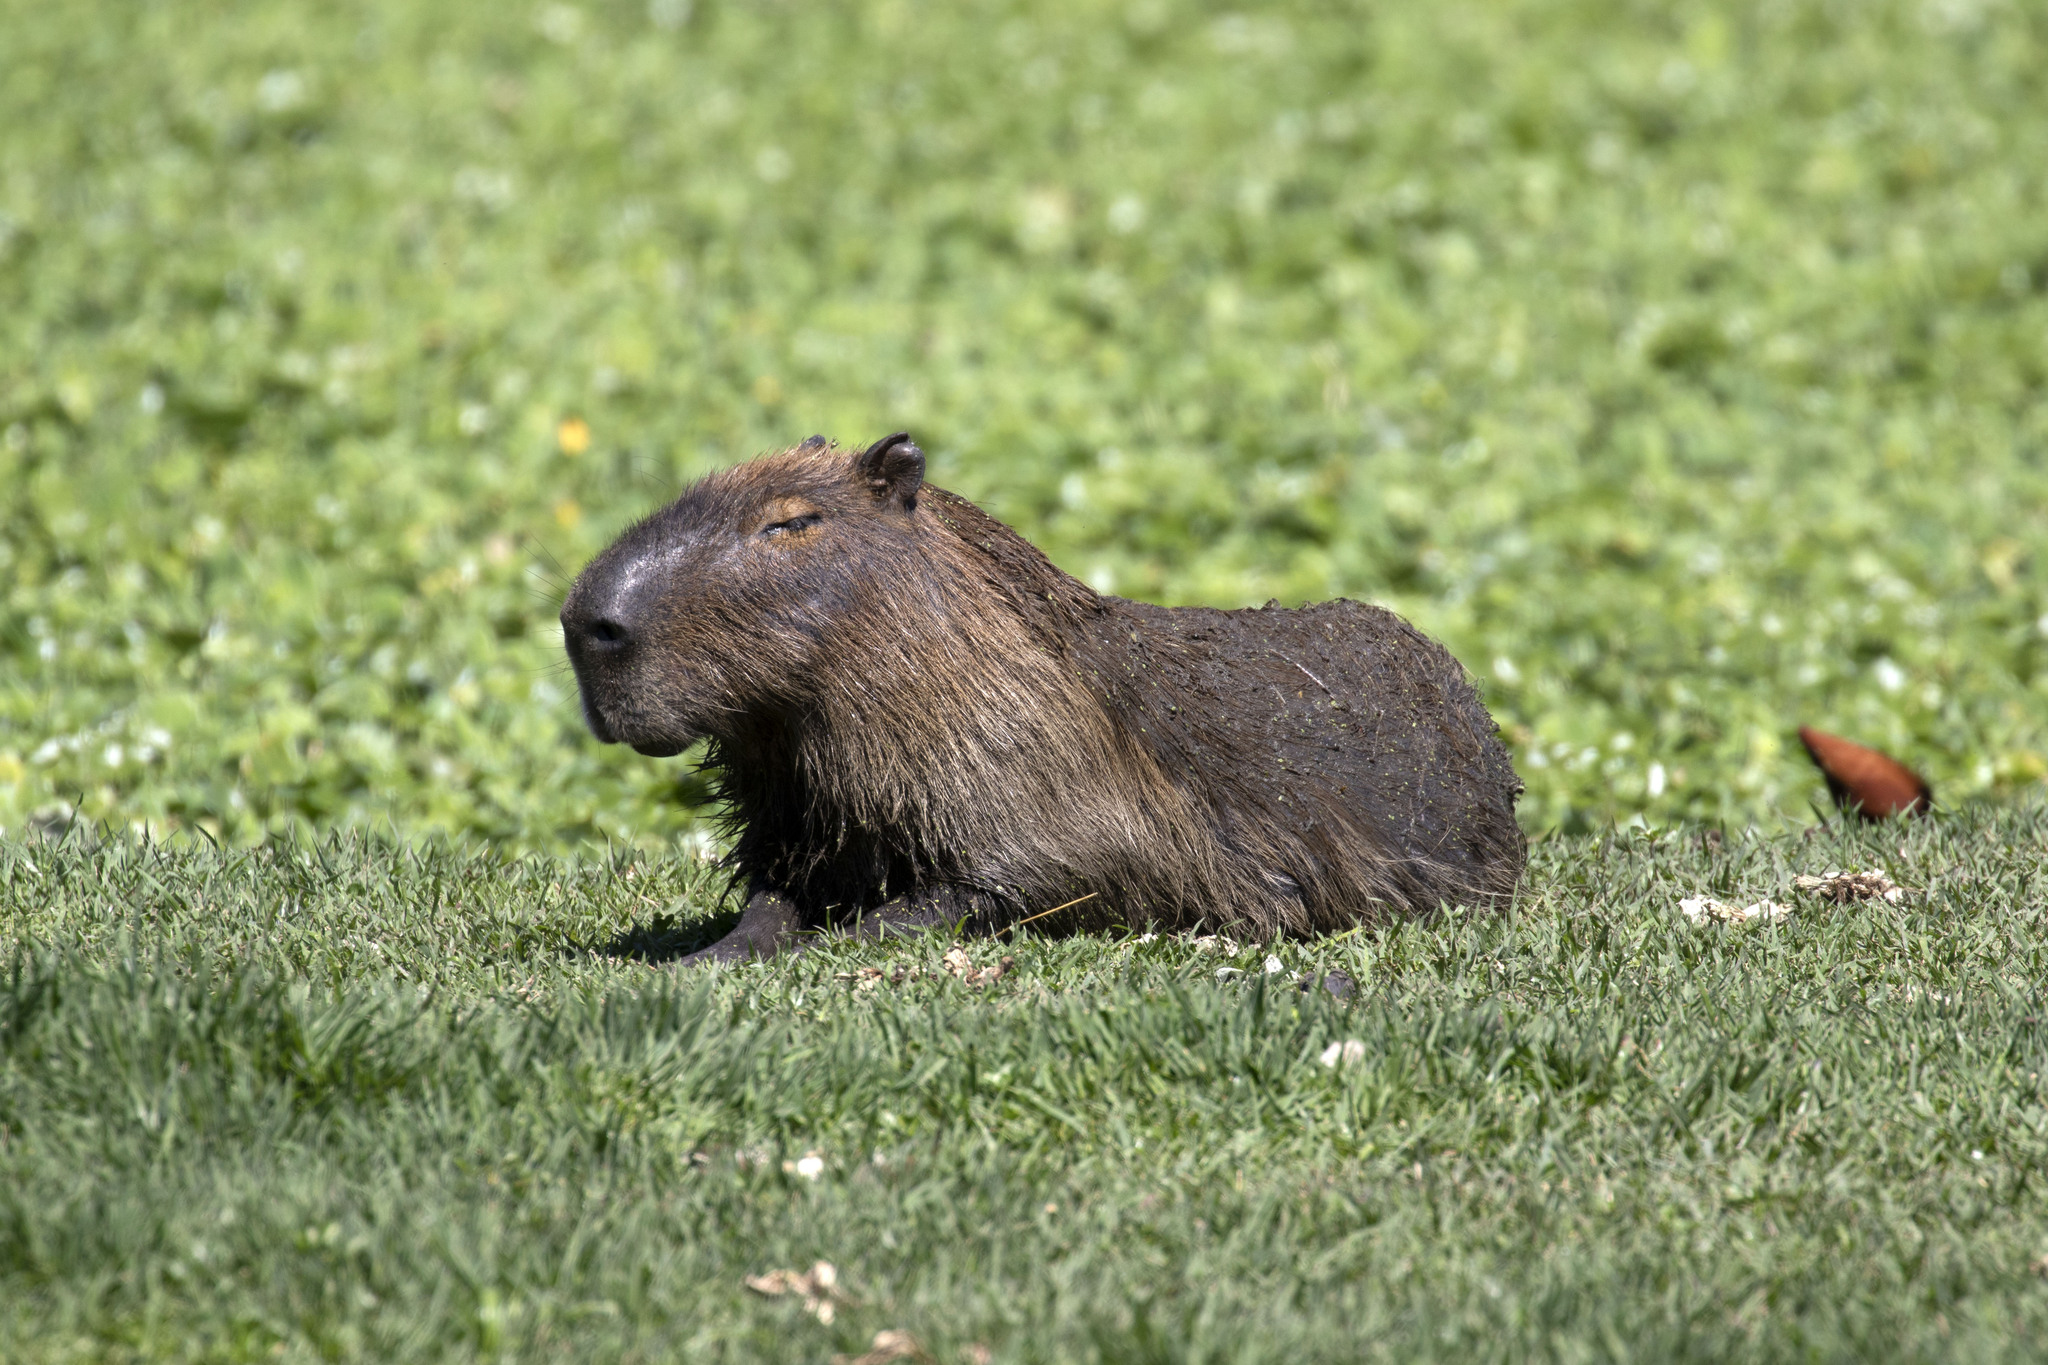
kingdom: Animalia
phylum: Chordata
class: Mammalia
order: Rodentia
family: Caviidae
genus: Hydrochoerus
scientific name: Hydrochoerus hydrochaeris
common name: Capybara
